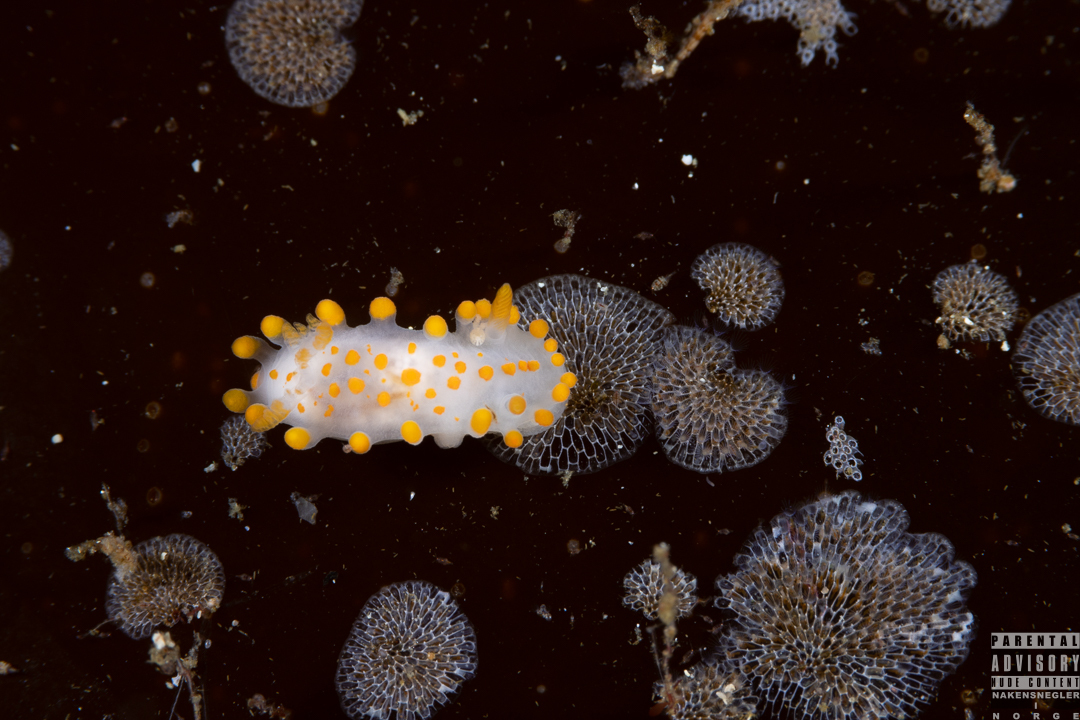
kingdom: Animalia
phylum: Mollusca
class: Gastropoda
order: Nudibranchia
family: Polyceridae
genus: Limacia
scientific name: Limacia clavigera
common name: Orange-clubbed sea slug
